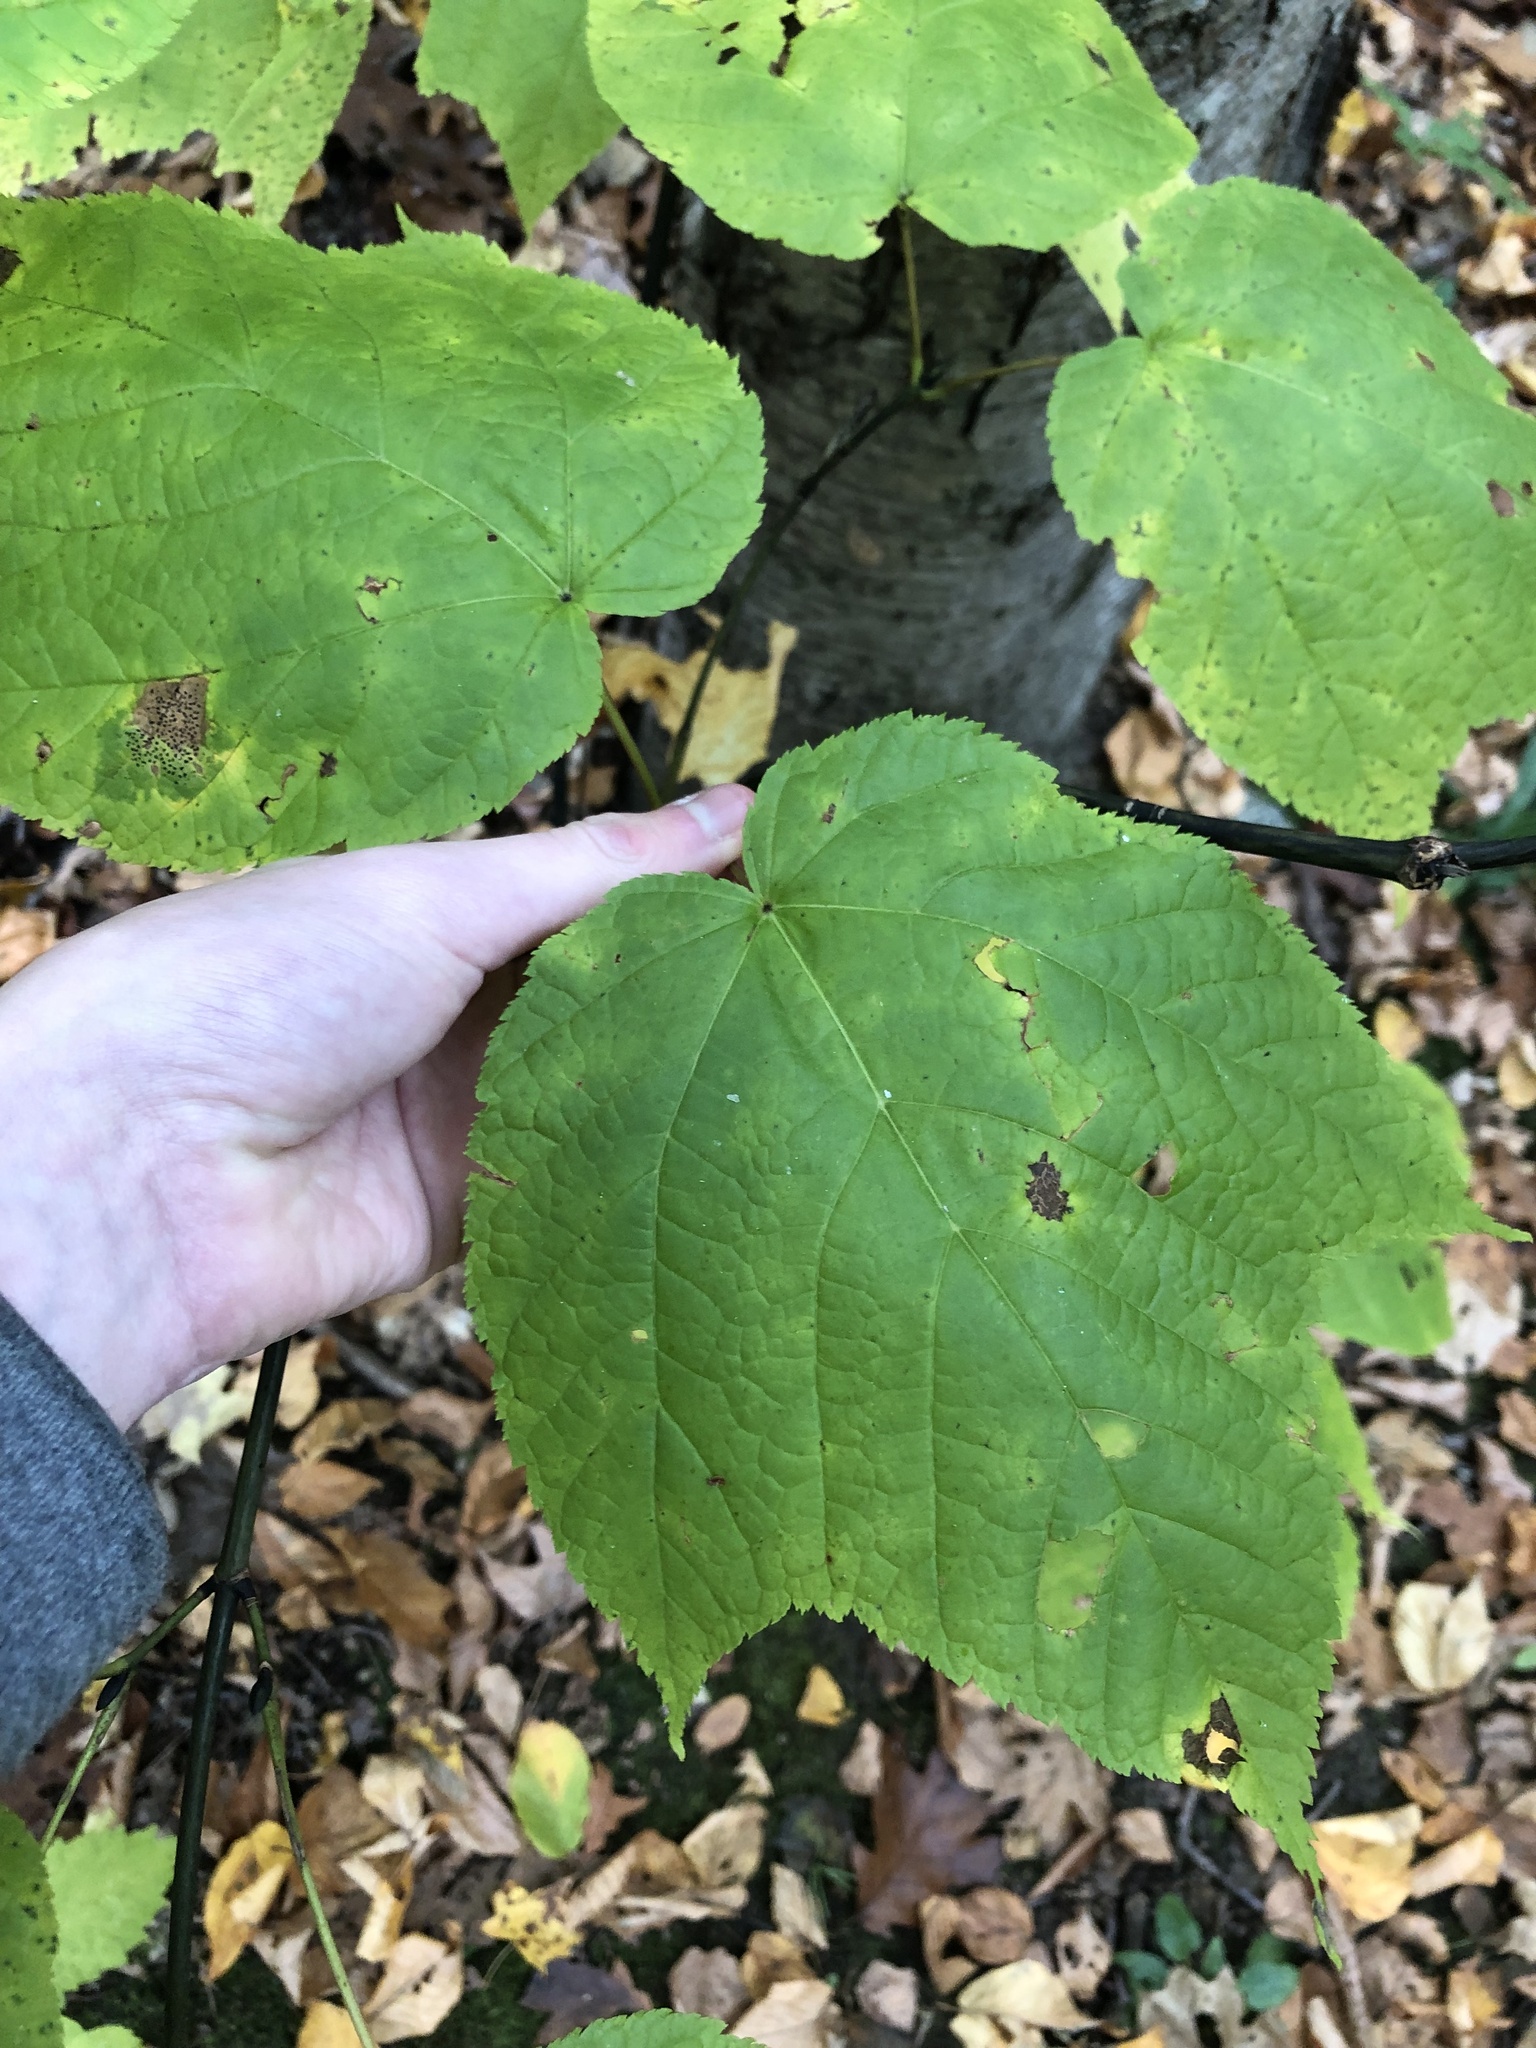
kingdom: Plantae
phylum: Tracheophyta
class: Magnoliopsida
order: Sapindales
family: Sapindaceae
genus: Acer
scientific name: Acer pensylvanicum
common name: Moosewood
